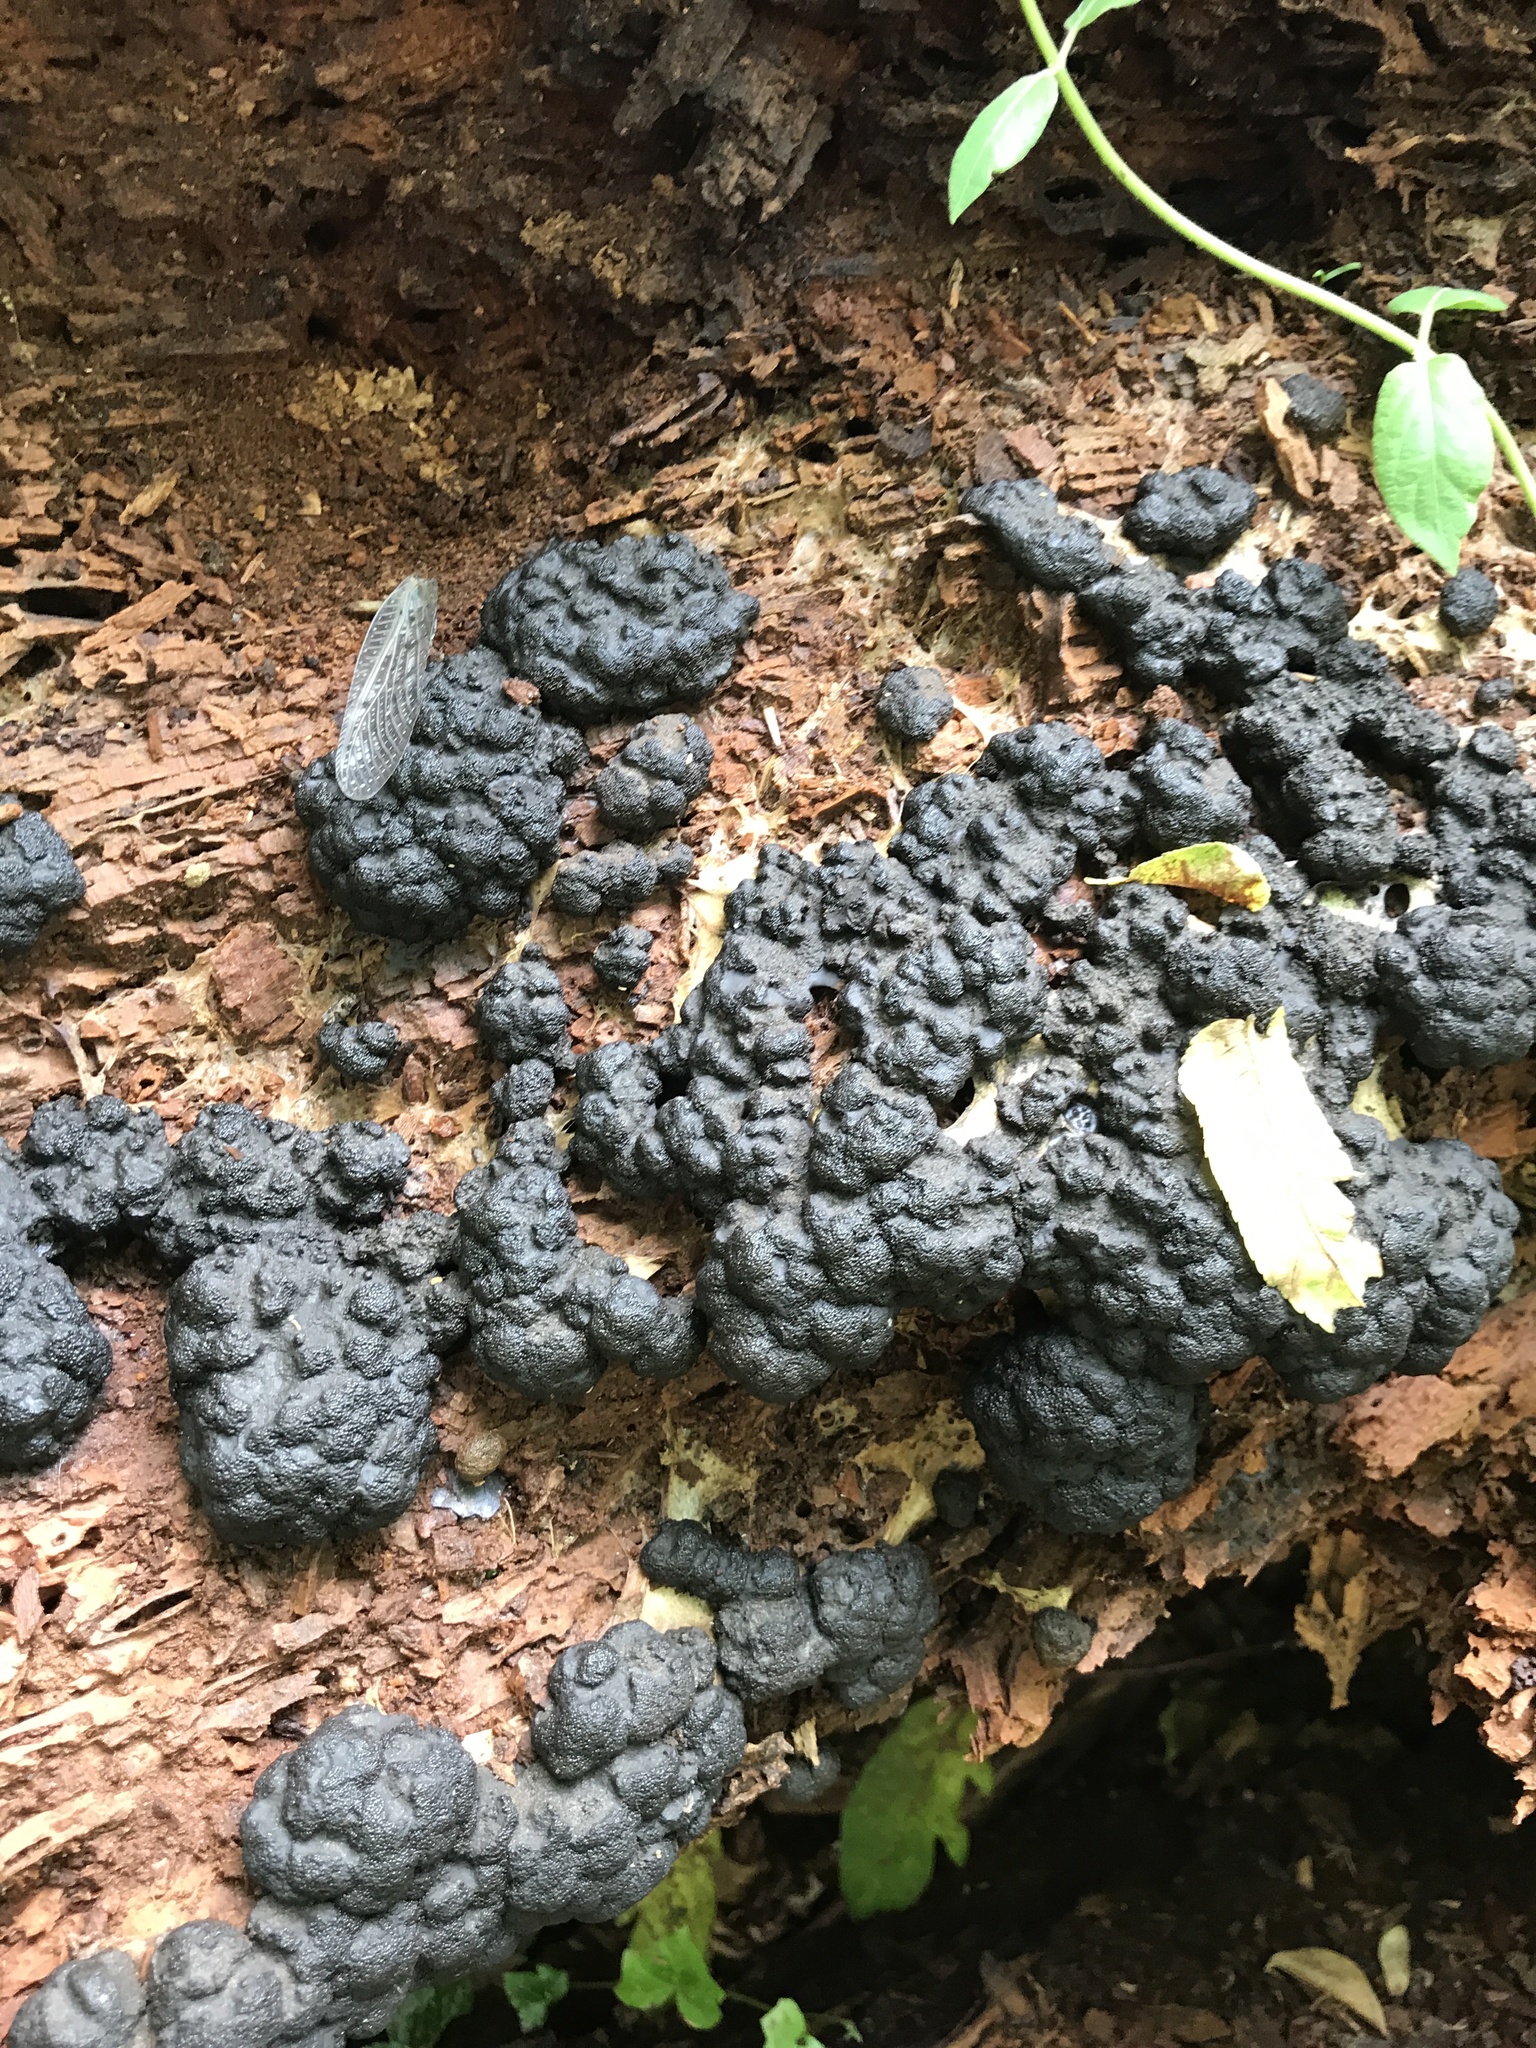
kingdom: Fungi
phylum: Ascomycota
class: Sordariomycetes
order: Xylariales
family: Xylariaceae
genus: Kretzschmaria
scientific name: Kretzschmaria deusta
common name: Brittle cinder
